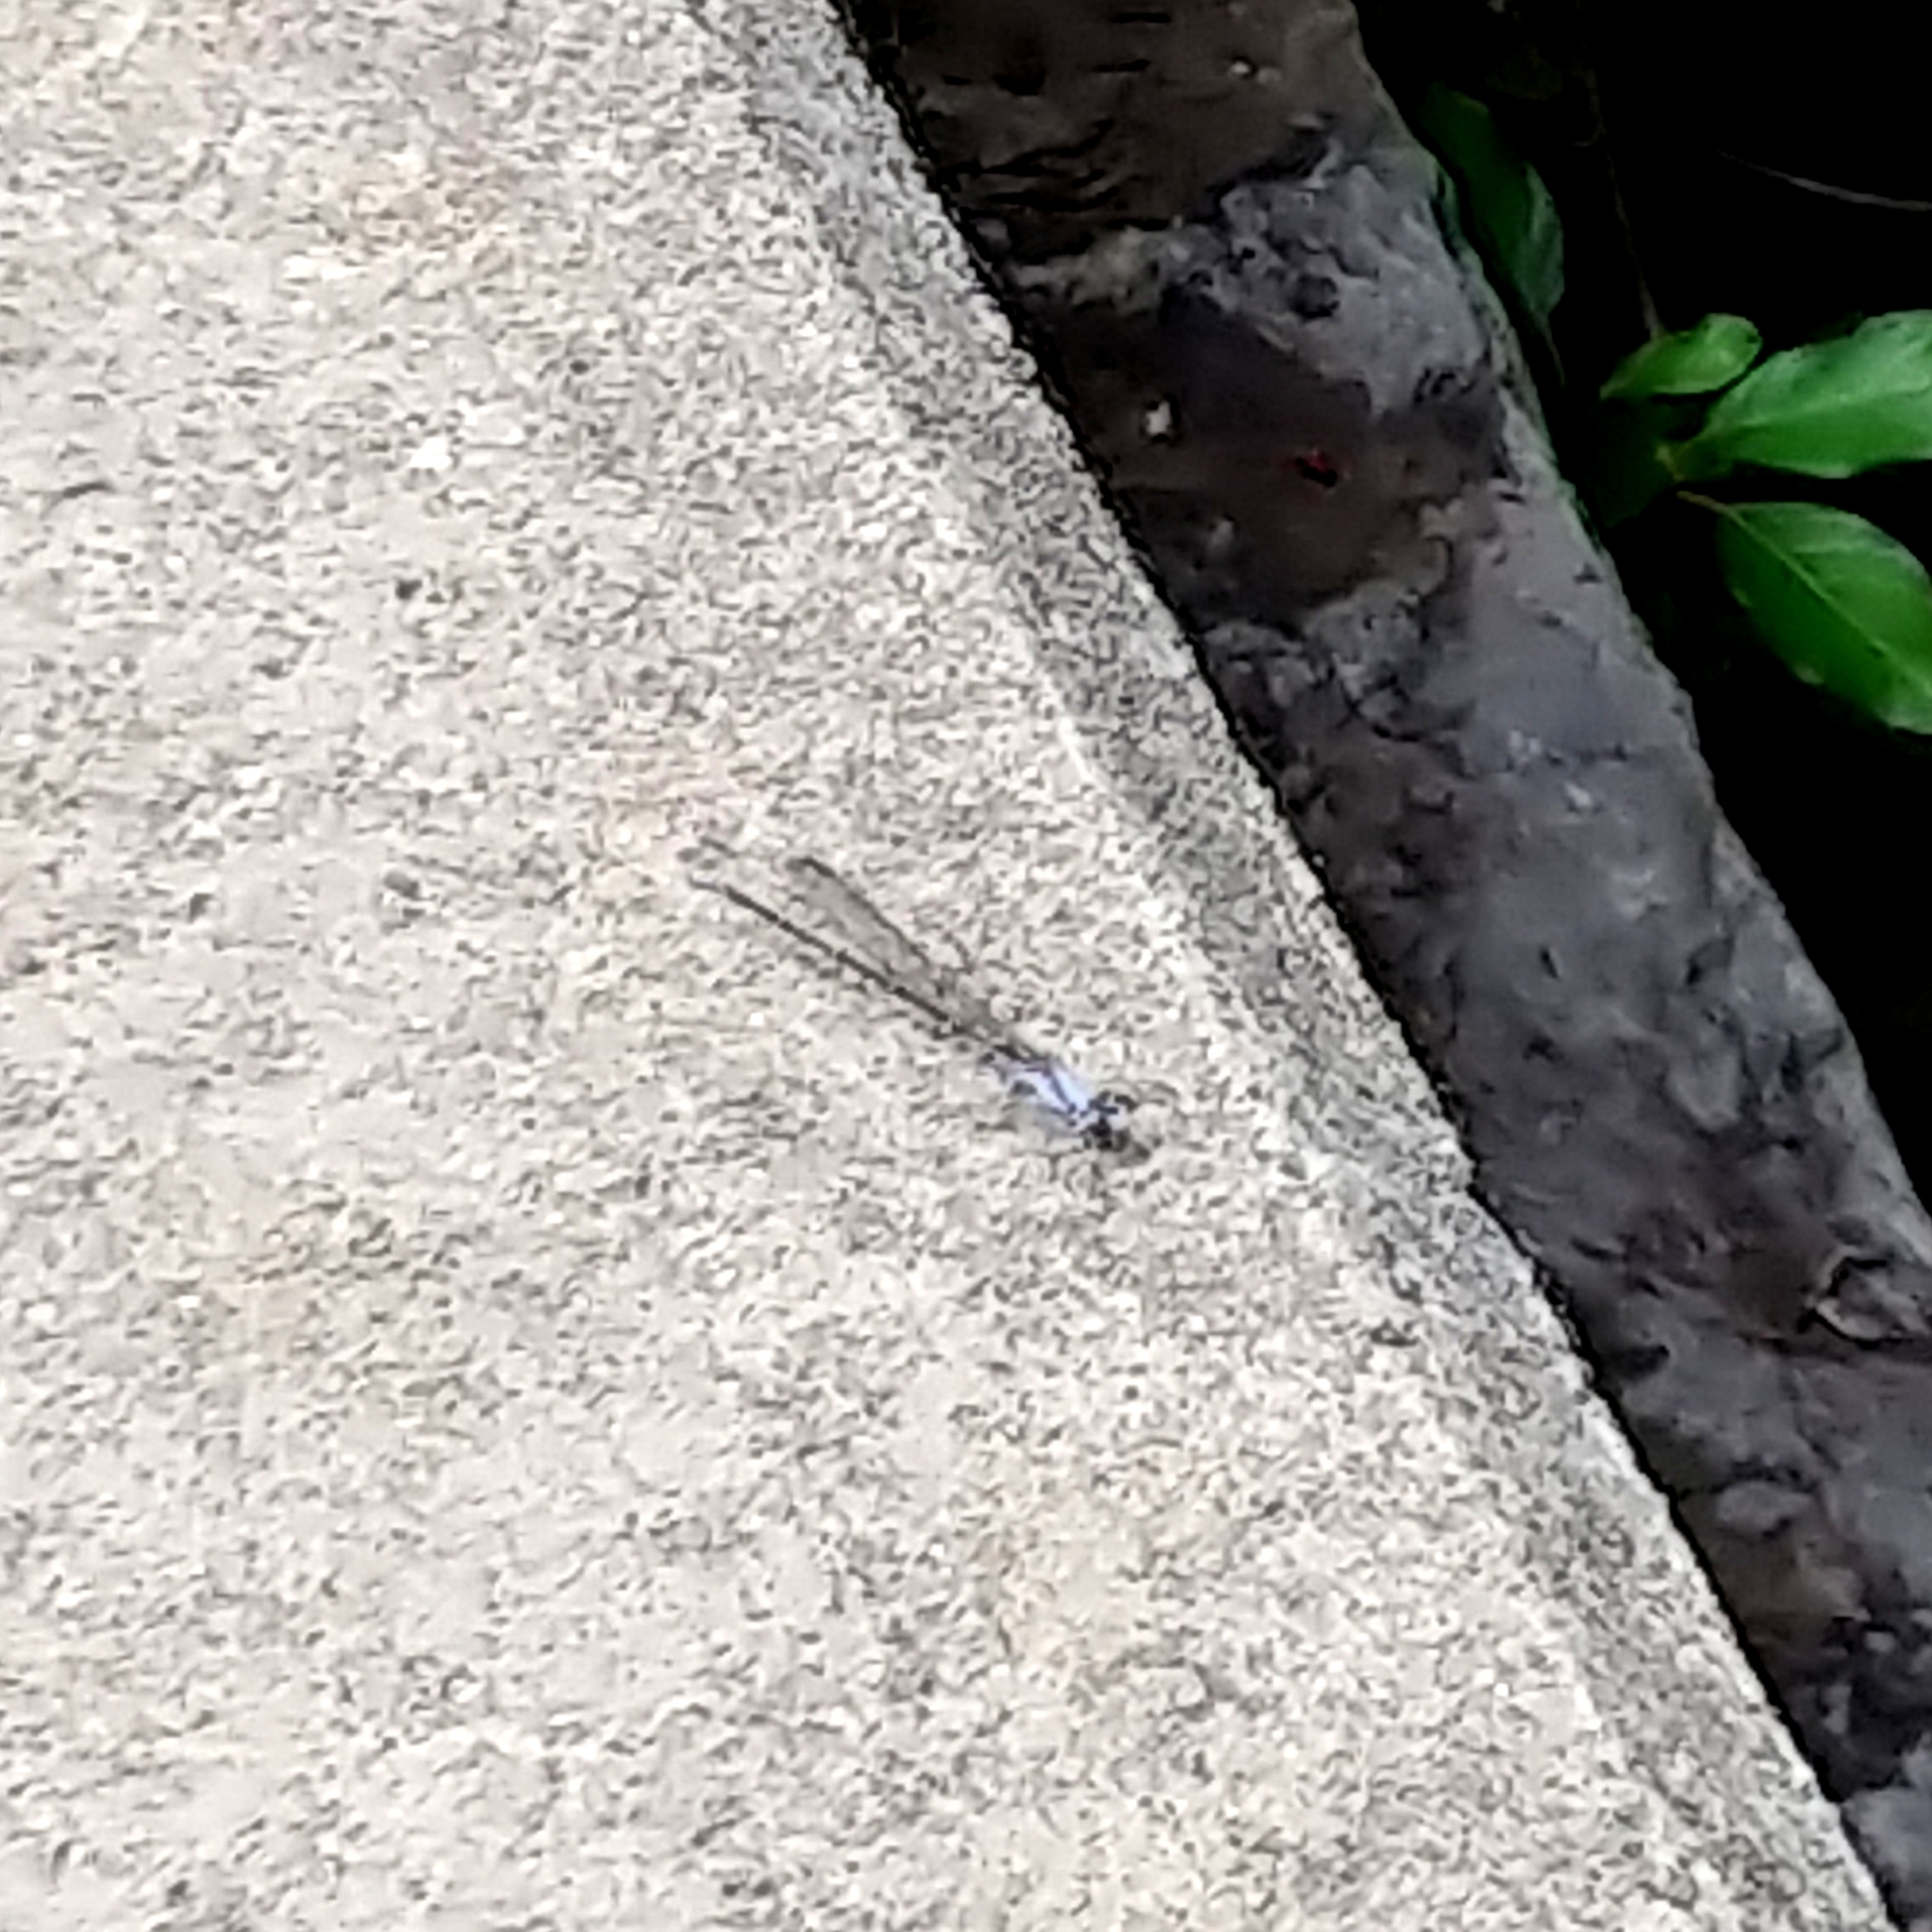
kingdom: Animalia
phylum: Arthropoda
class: Insecta
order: Odonata
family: Coenagrionidae
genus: Argia
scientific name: Argia moesta
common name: Powdered dancer
